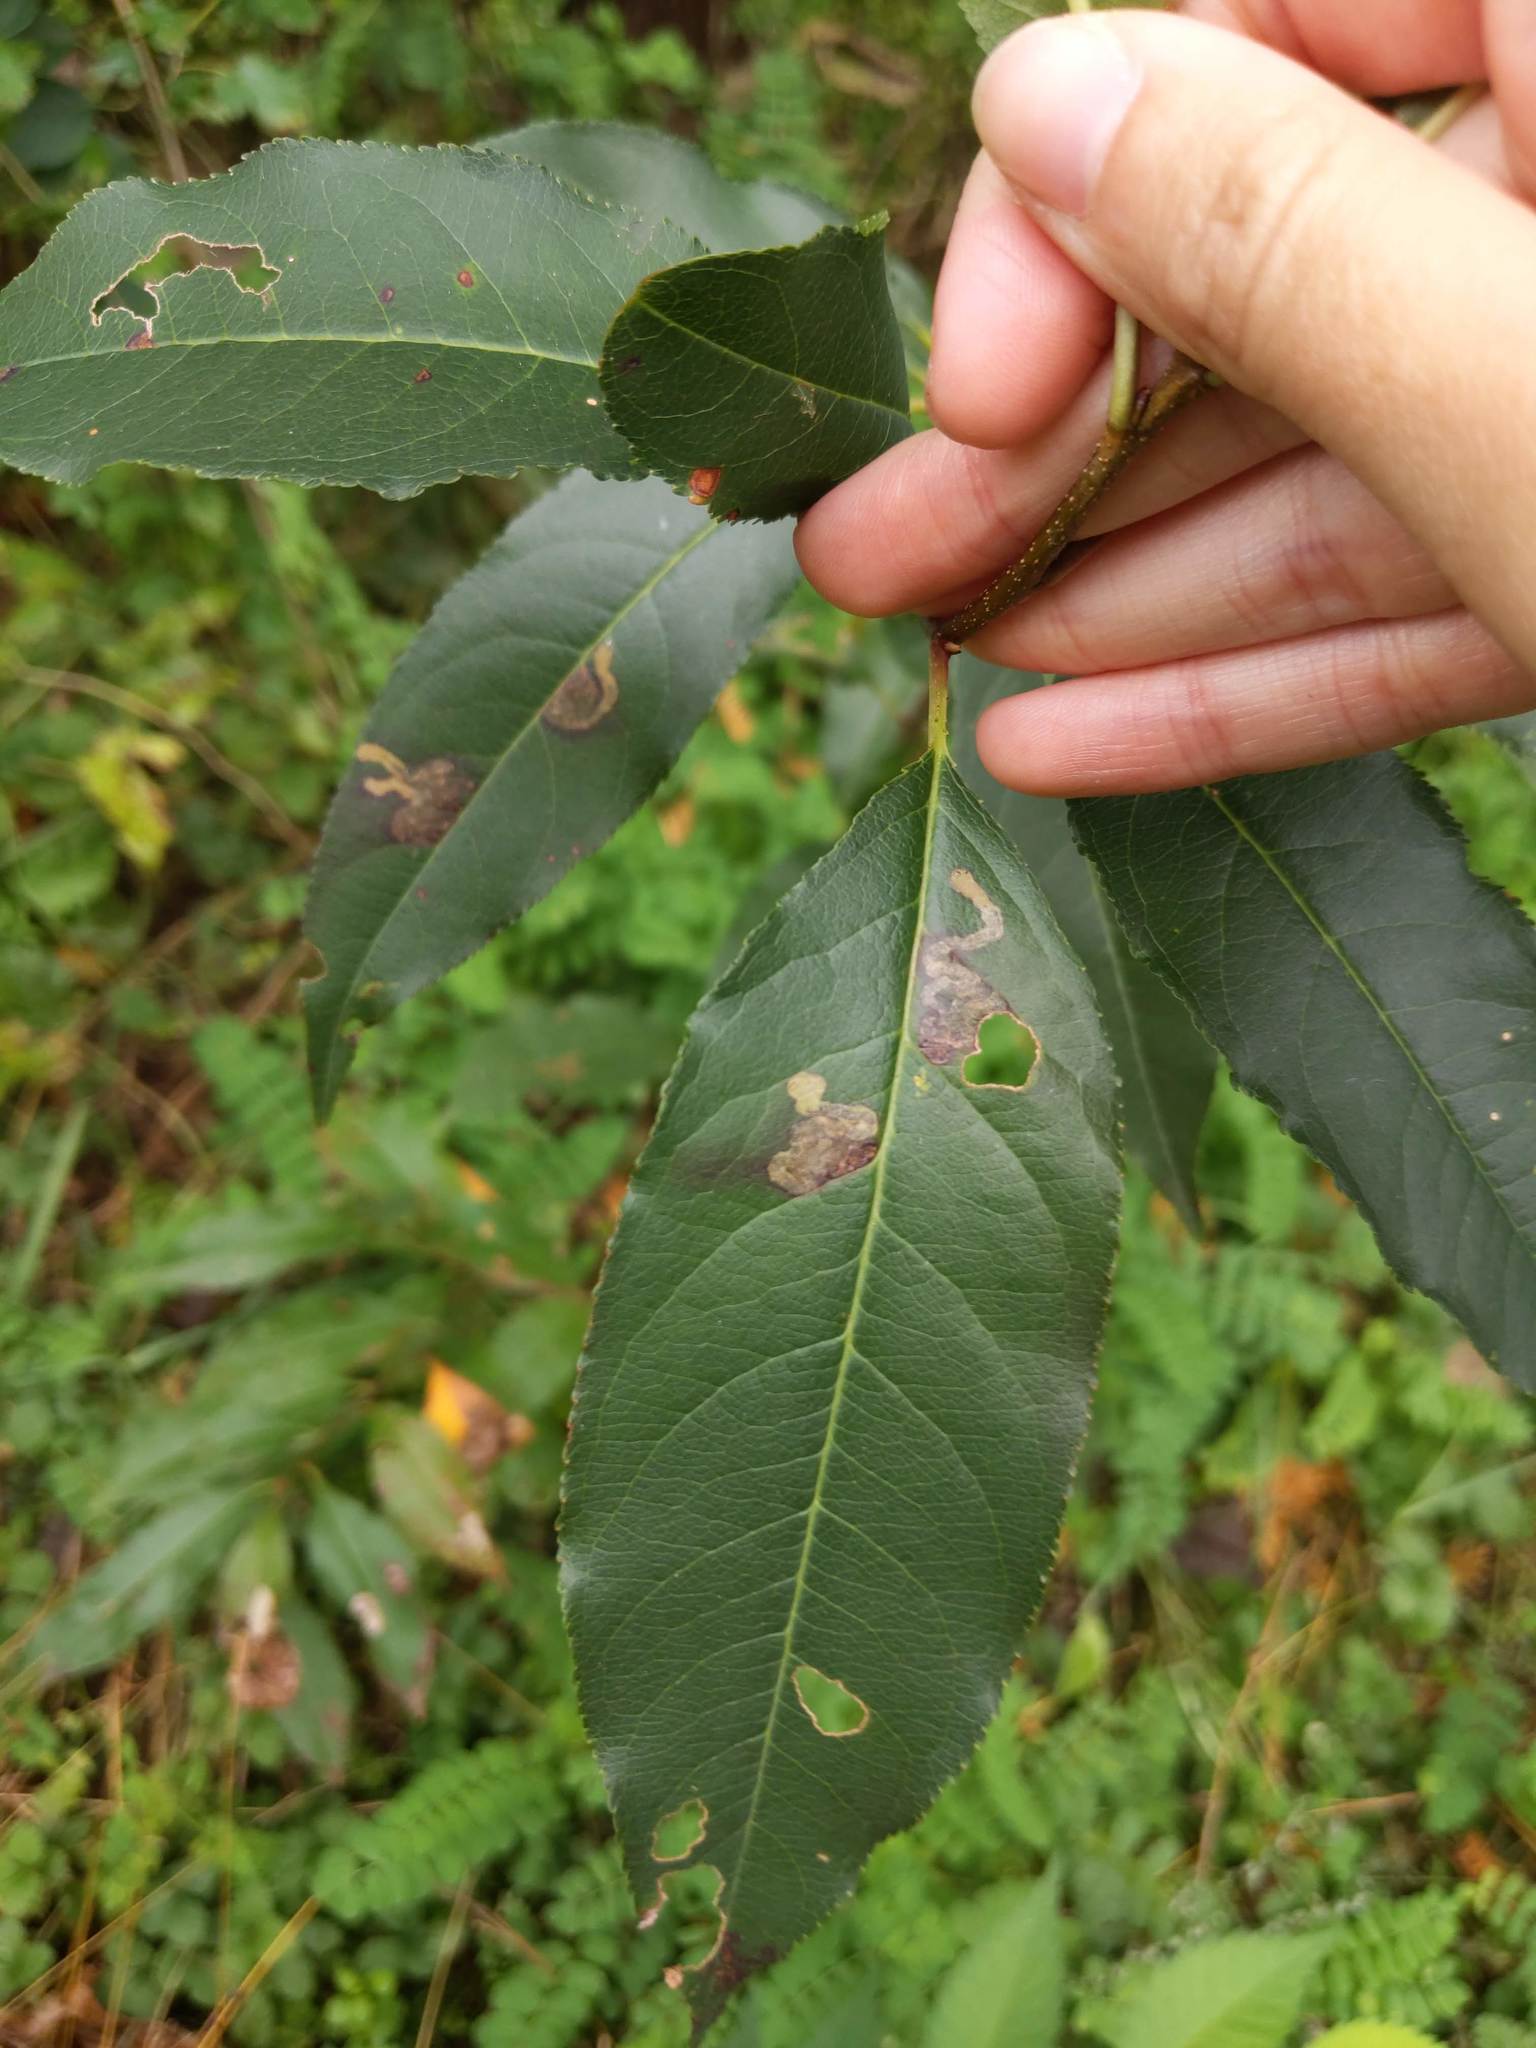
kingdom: Plantae
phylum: Tracheophyta
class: Magnoliopsida
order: Rosales
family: Rosaceae
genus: Prunus
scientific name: Prunus serotina
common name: Black cherry
